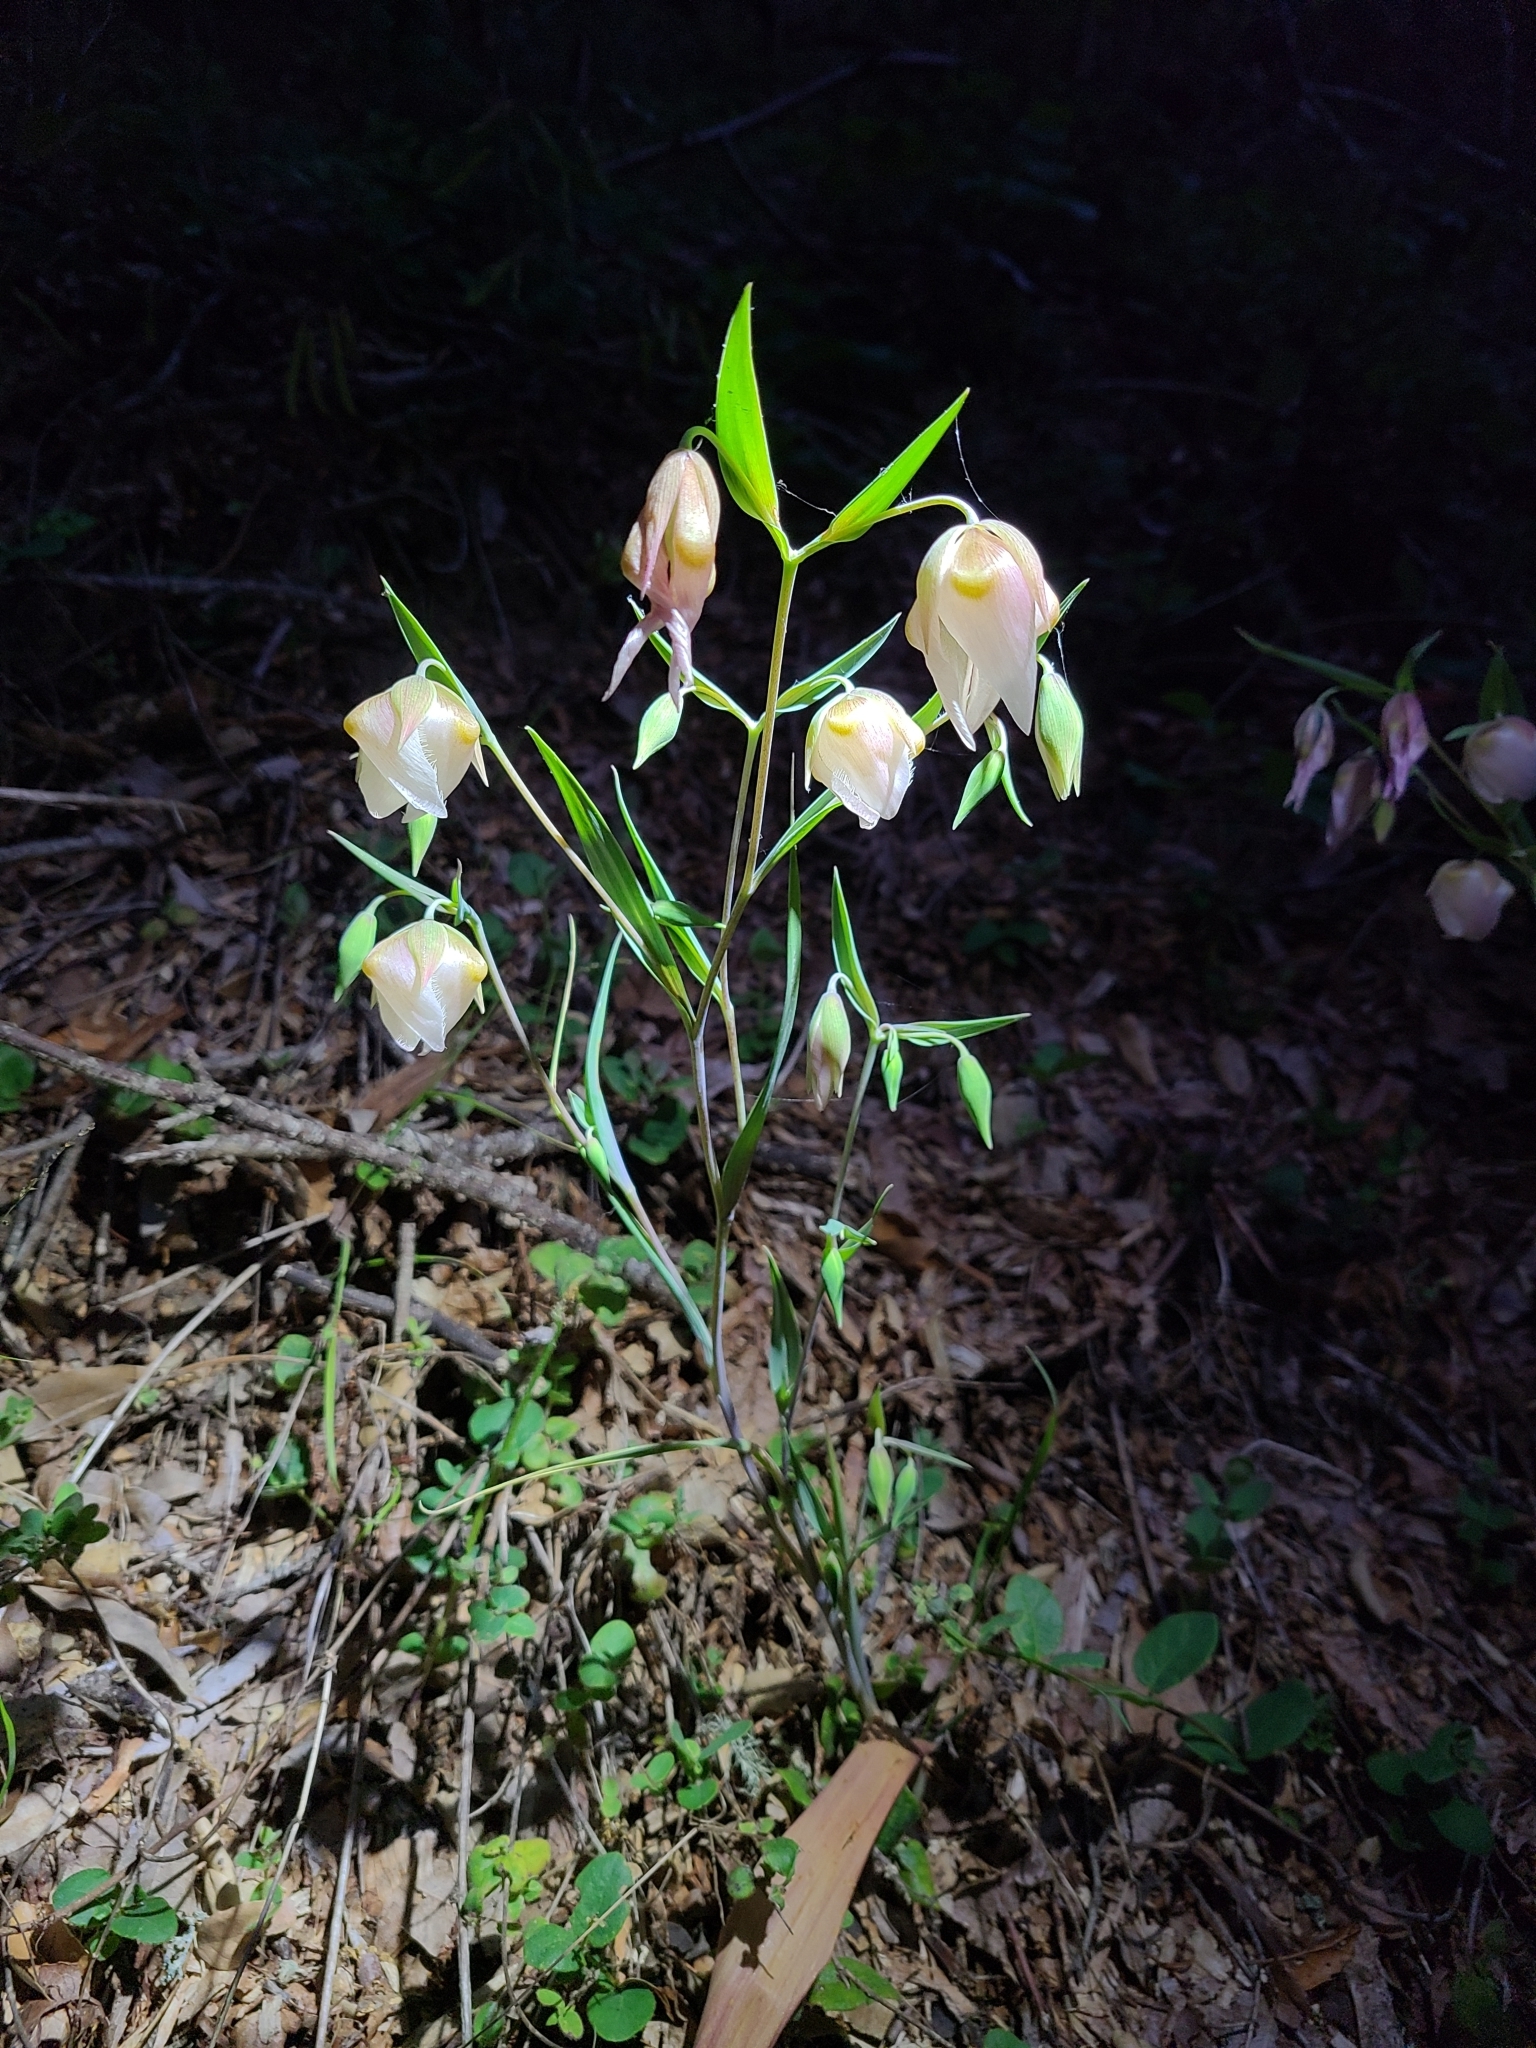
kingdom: Plantae
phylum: Tracheophyta
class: Liliopsida
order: Liliales
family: Liliaceae
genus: Calochortus
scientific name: Calochortus albus
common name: Fairy-lantern
